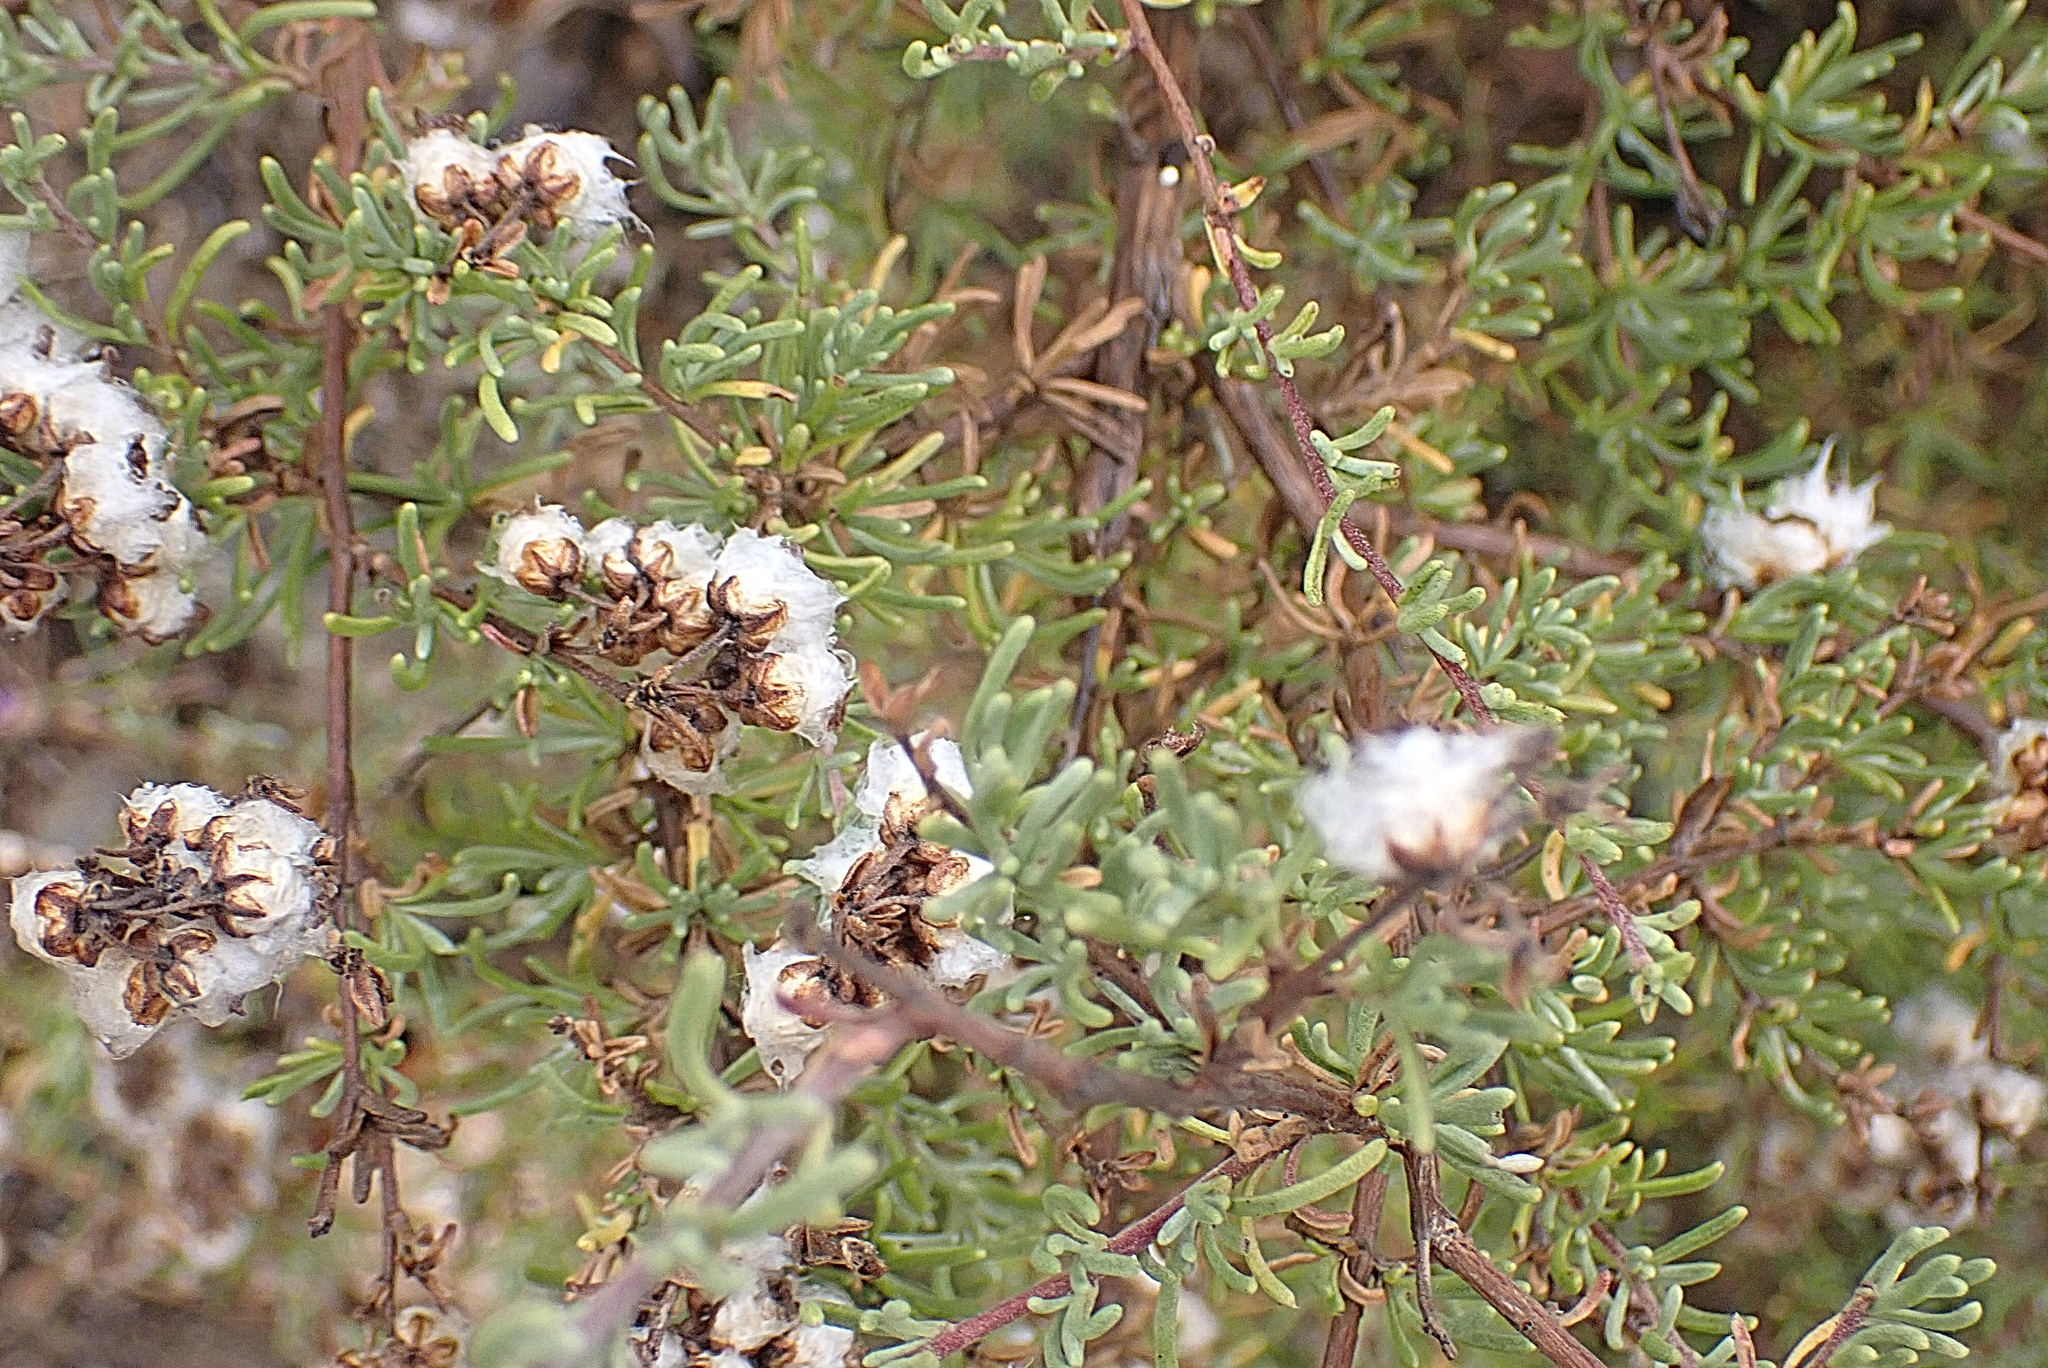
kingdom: Plantae
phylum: Tracheophyta
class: Magnoliopsida
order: Asterales
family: Asteraceae
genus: Eriocephalus
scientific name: Eriocephalus africanus
